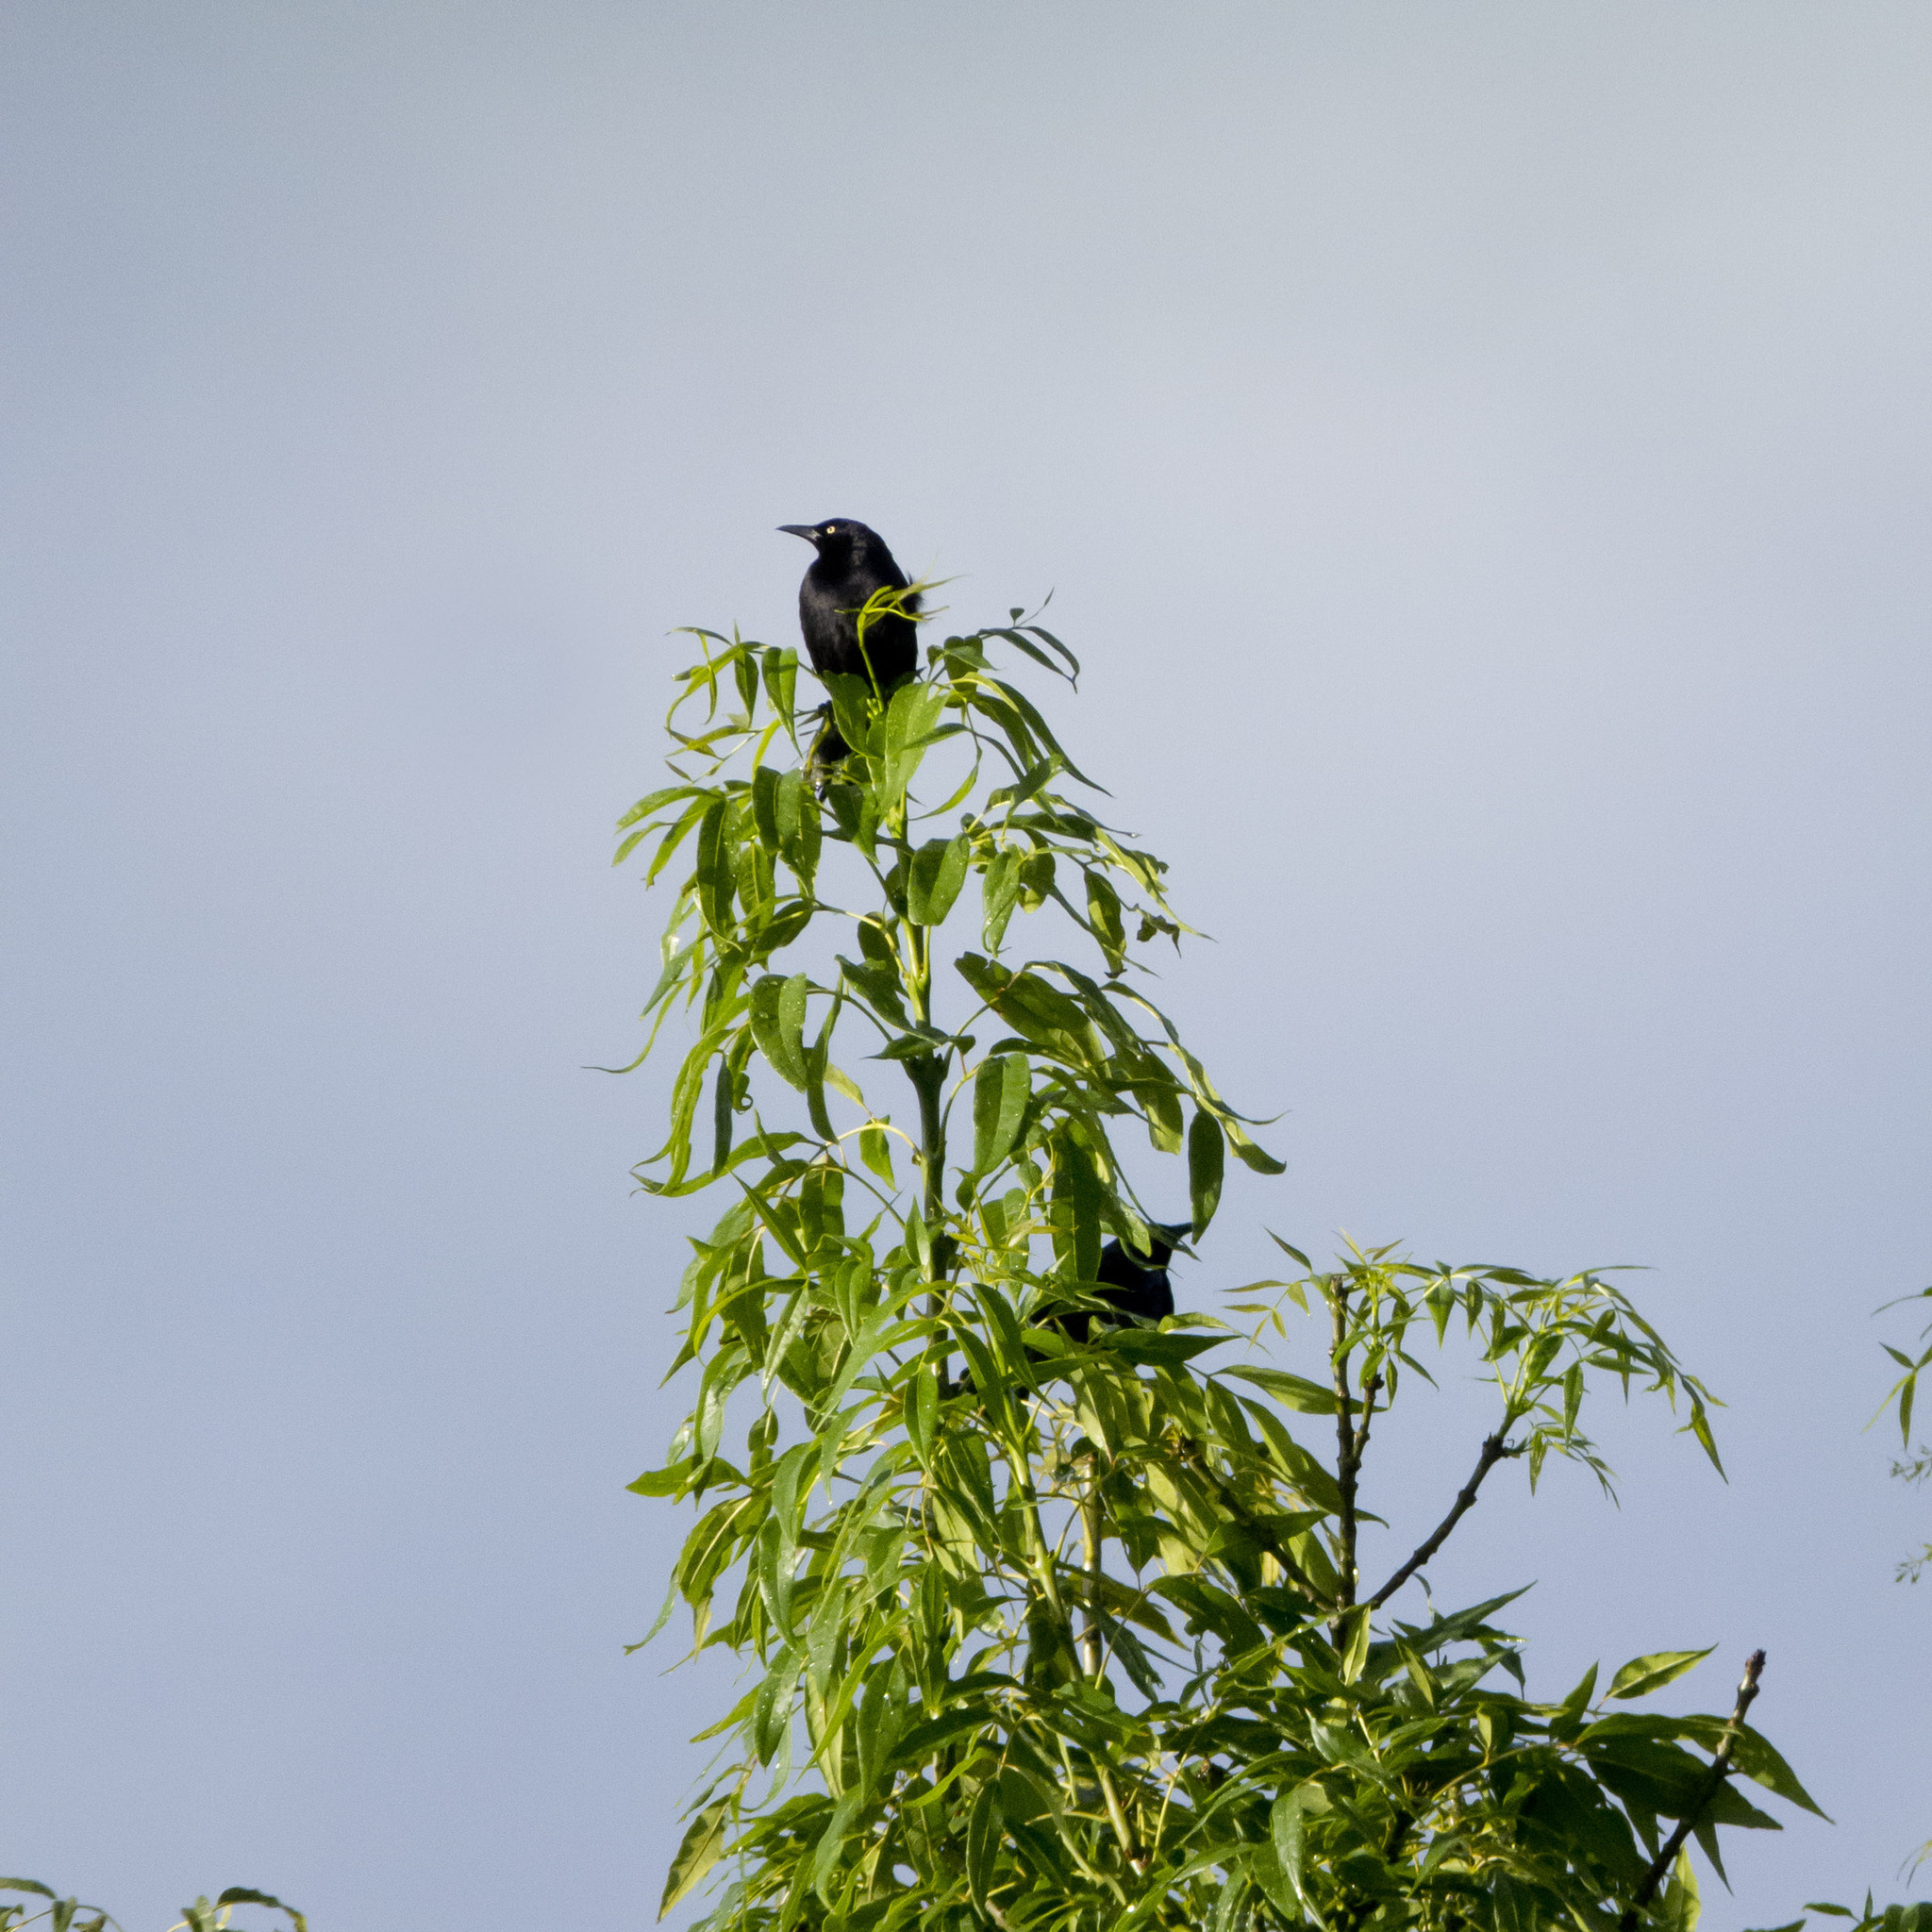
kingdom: Animalia
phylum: Chordata
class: Aves
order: Passeriformes
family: Icteridae
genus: Quiscalus
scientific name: Quiscalus lugubris
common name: Carib grackle
